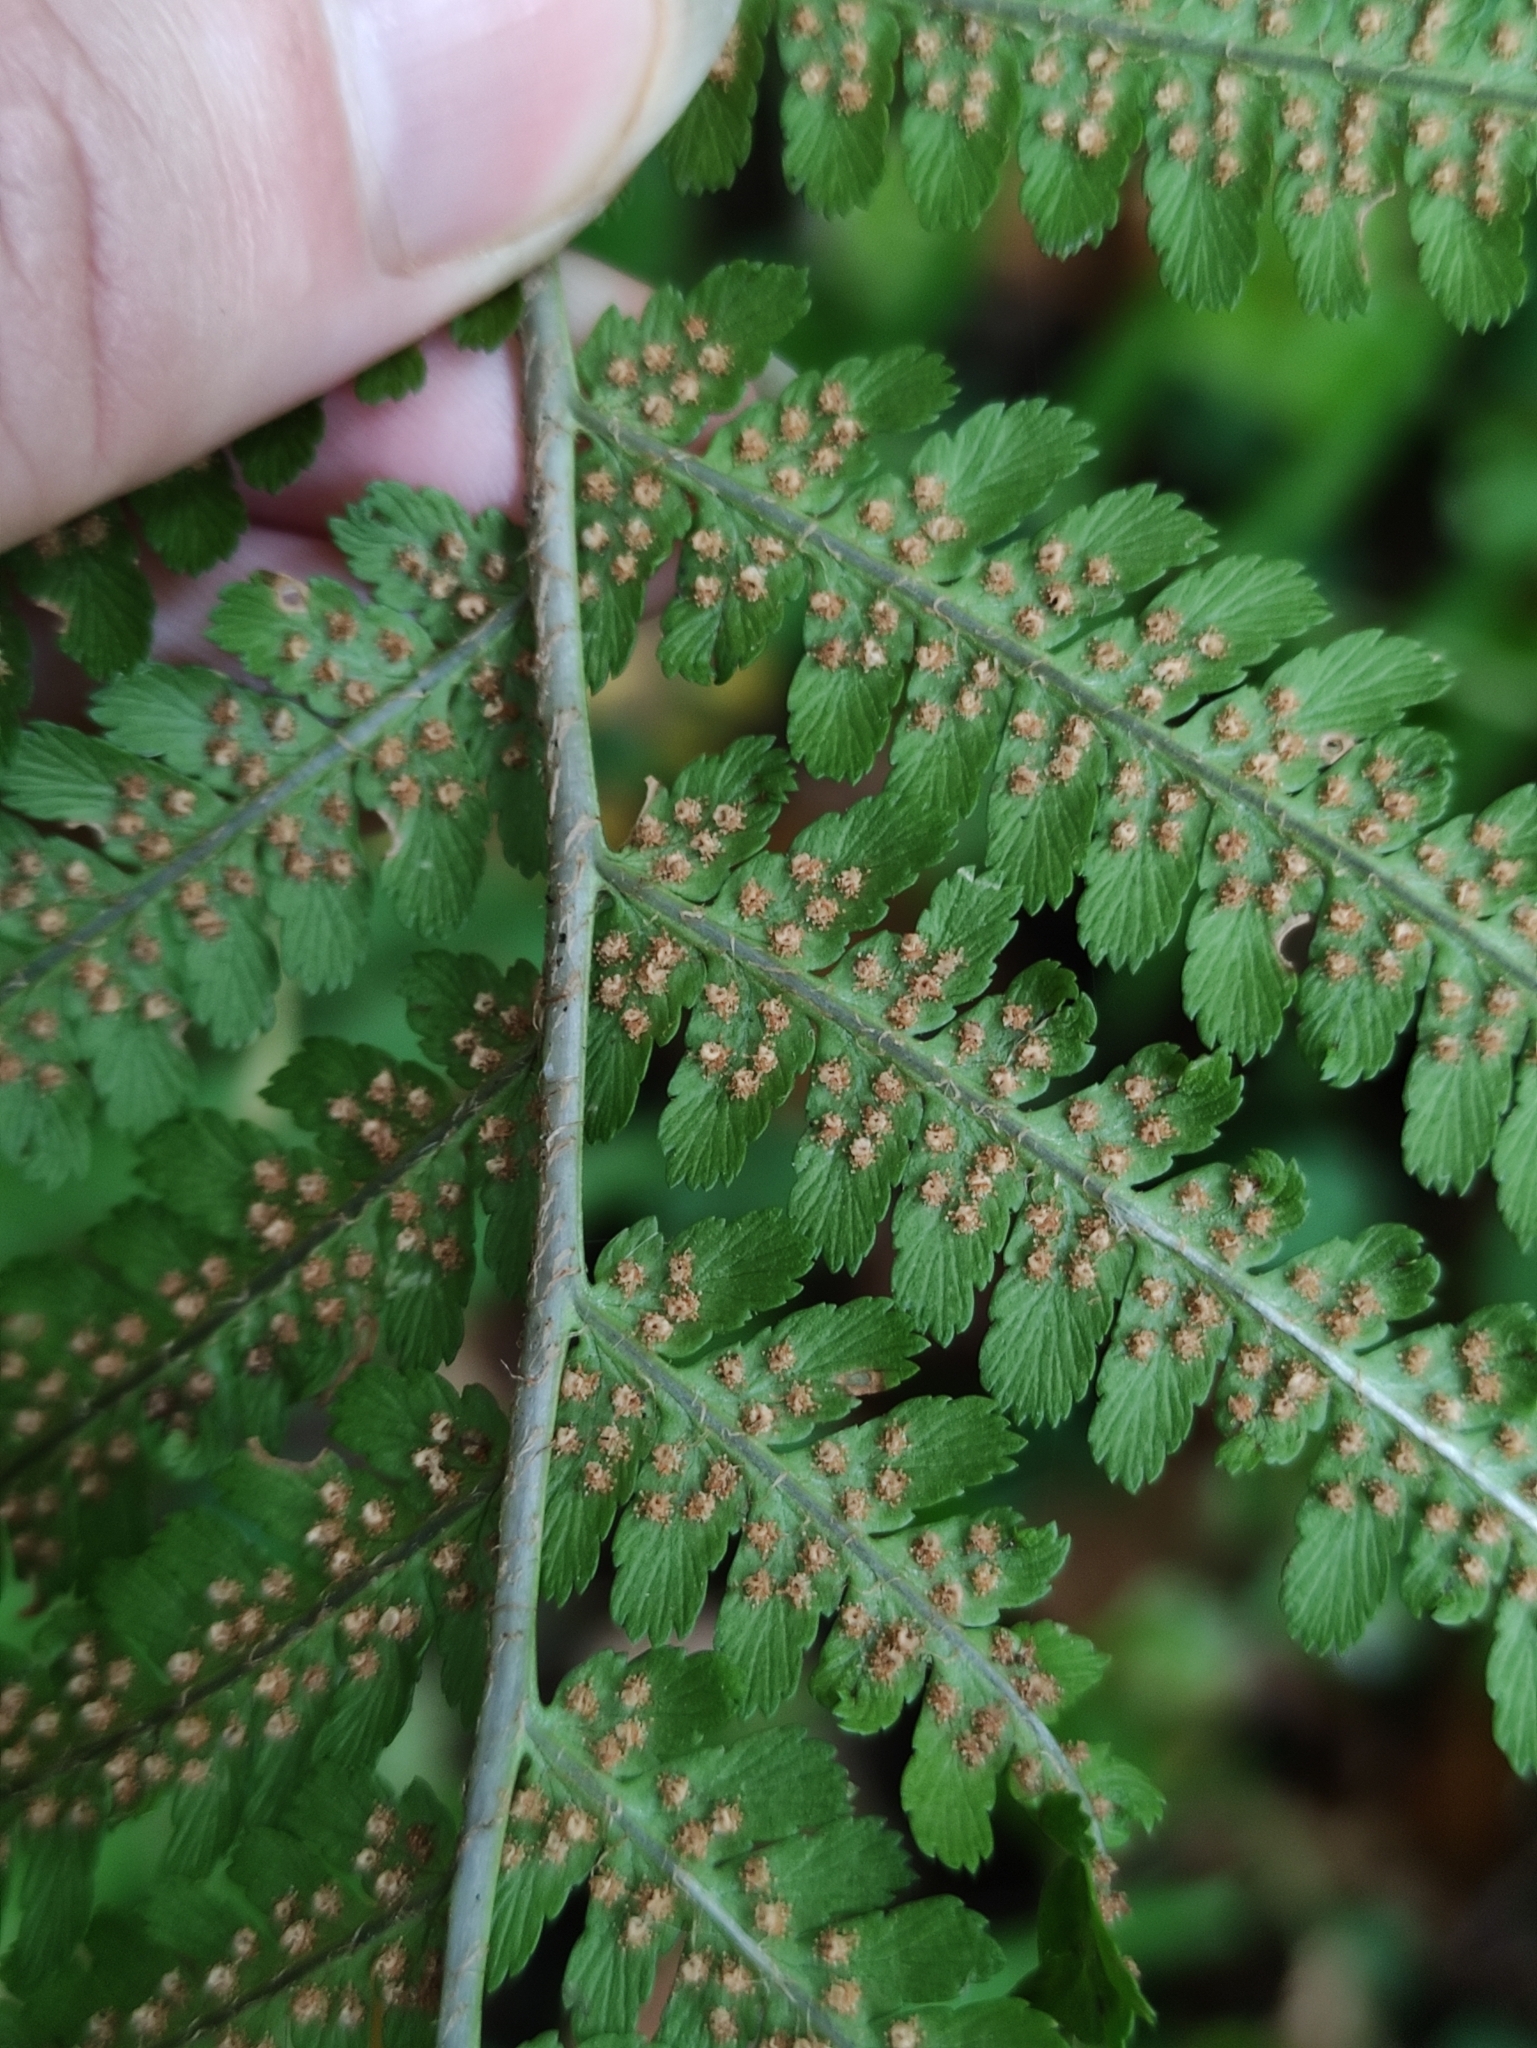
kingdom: Plantae
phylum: Tracheophyta
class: Polypodiopsida
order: Polypodiales
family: Dryopteridaceae
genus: Dryopteris
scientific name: Dryopteris filix-mas
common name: Male fern
